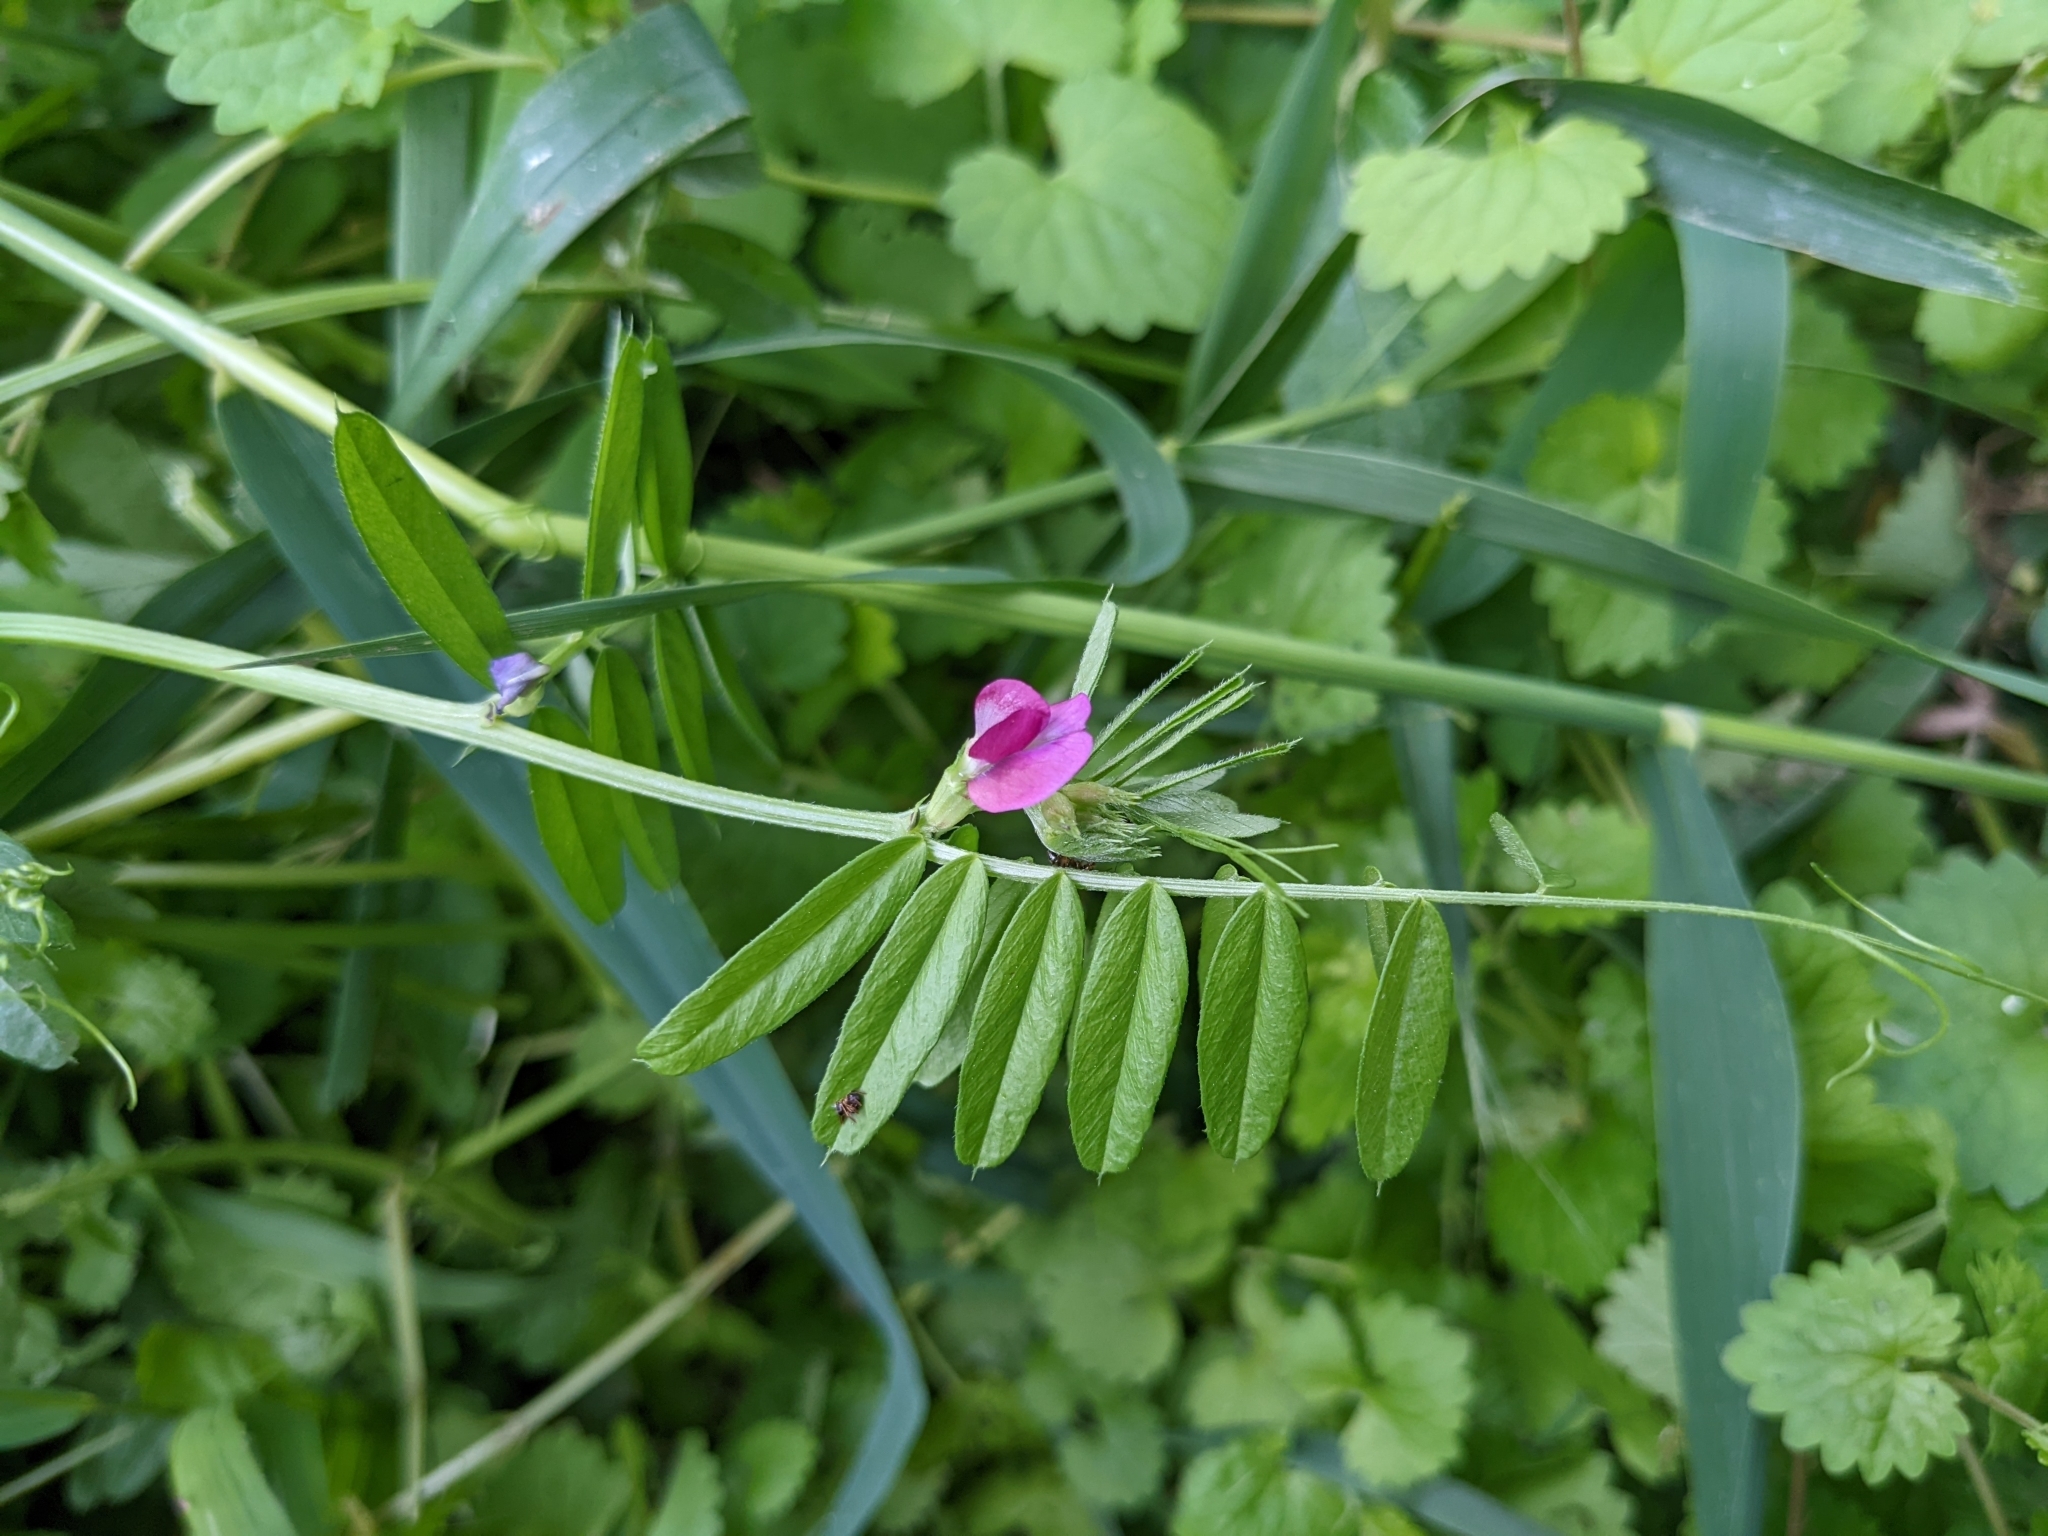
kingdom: Plantae
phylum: Tracheophyta
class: Magnoliopsida
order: Fabales
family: Fabaceae
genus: Vicia
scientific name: Vicia sativa
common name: Garden vetch
